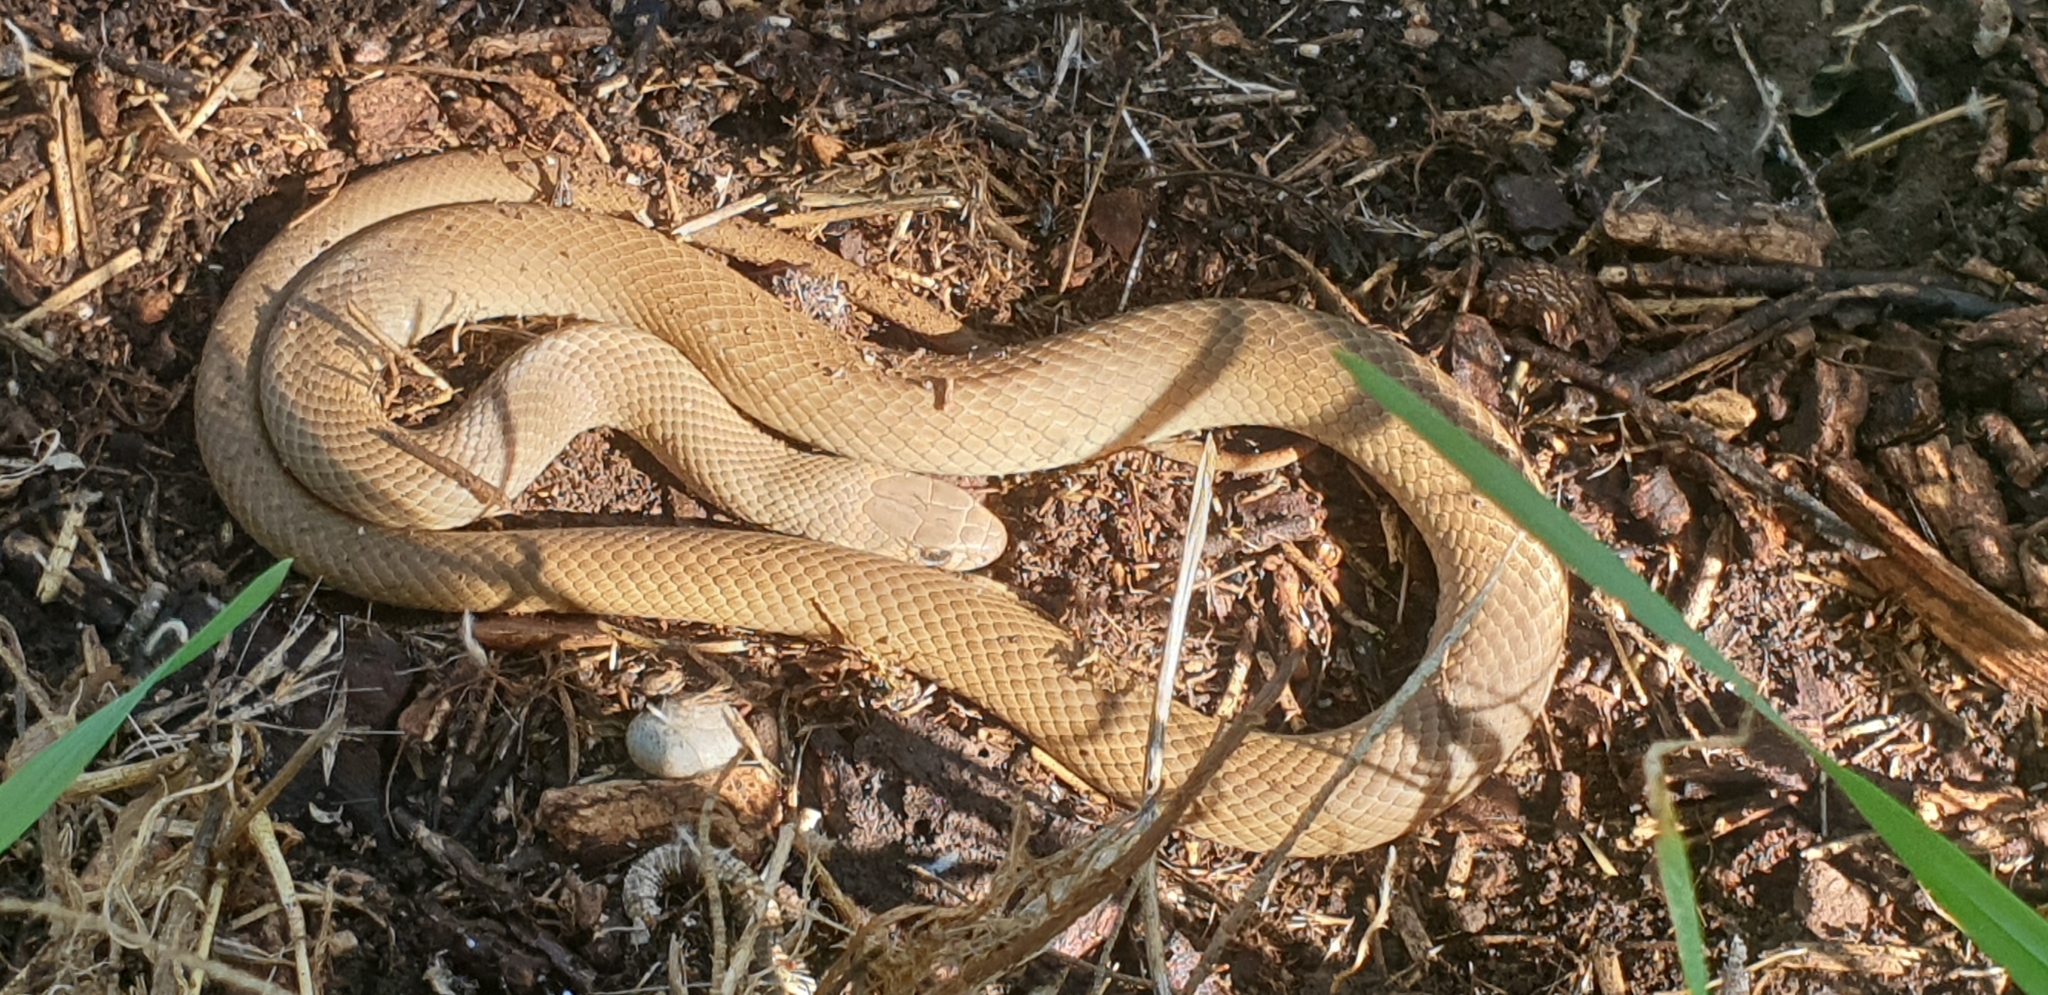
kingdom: Animalia
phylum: Chordata
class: Squamata
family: Elapidae
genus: Pseudonaja
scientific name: Pseudonaja textilis
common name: Eastern brown snake
